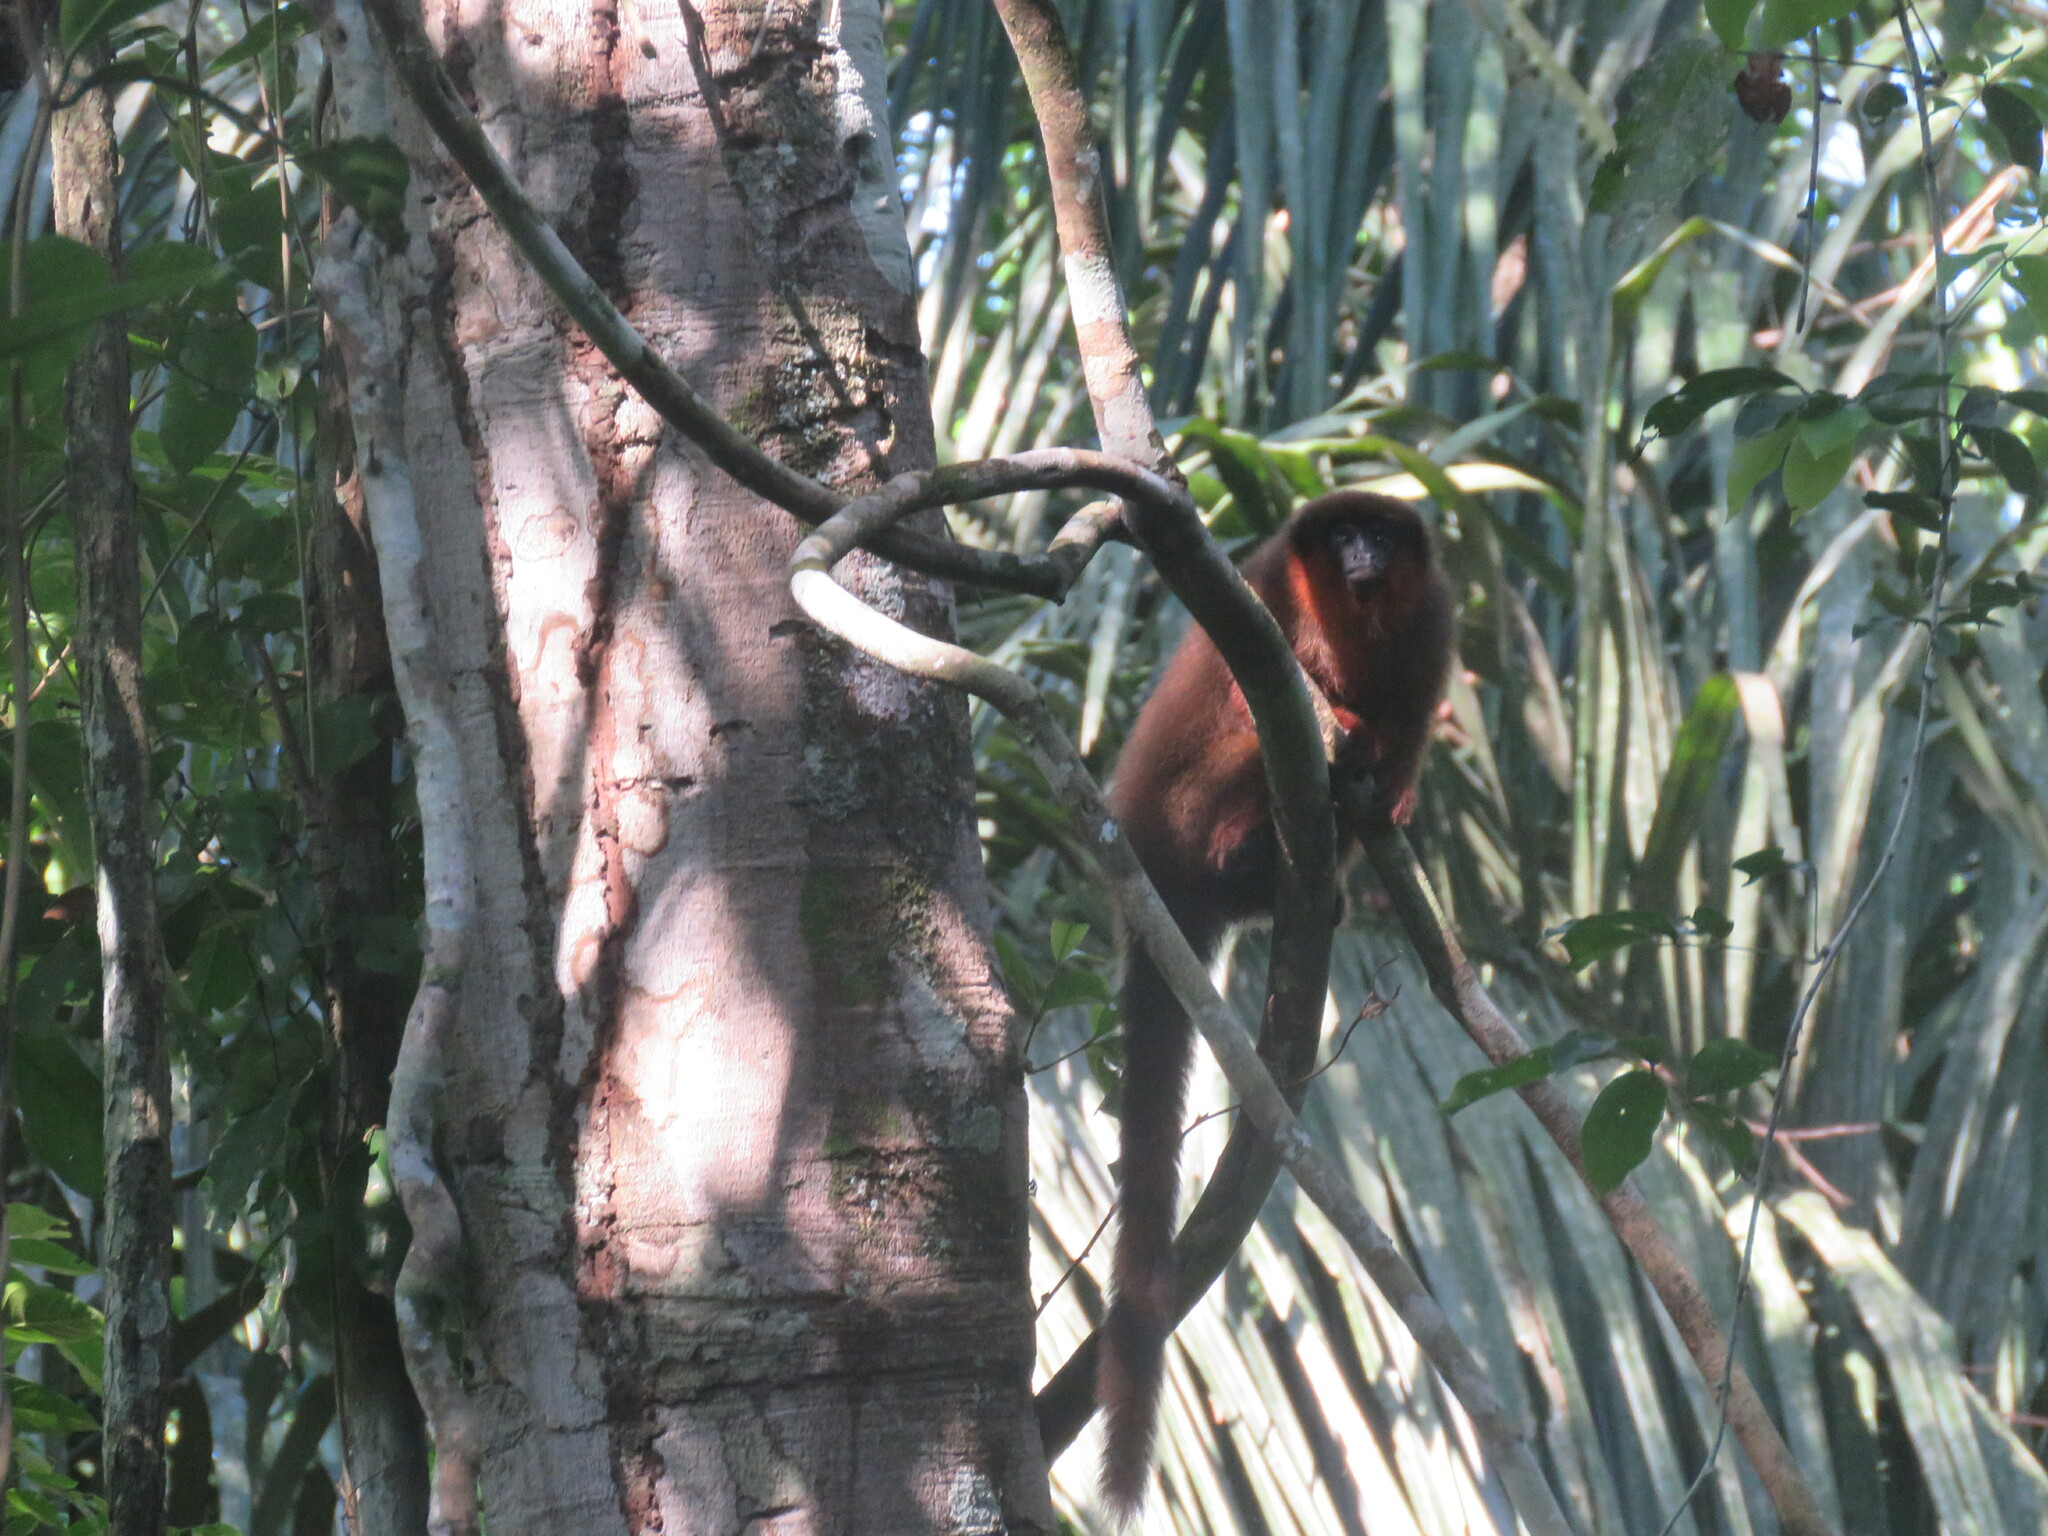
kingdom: Animalia
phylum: Chordata
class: Mammalia
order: Primates
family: Pitheciidae
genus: Plecturocebus
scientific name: Plecturocebus toppini
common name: Toppin's titi
